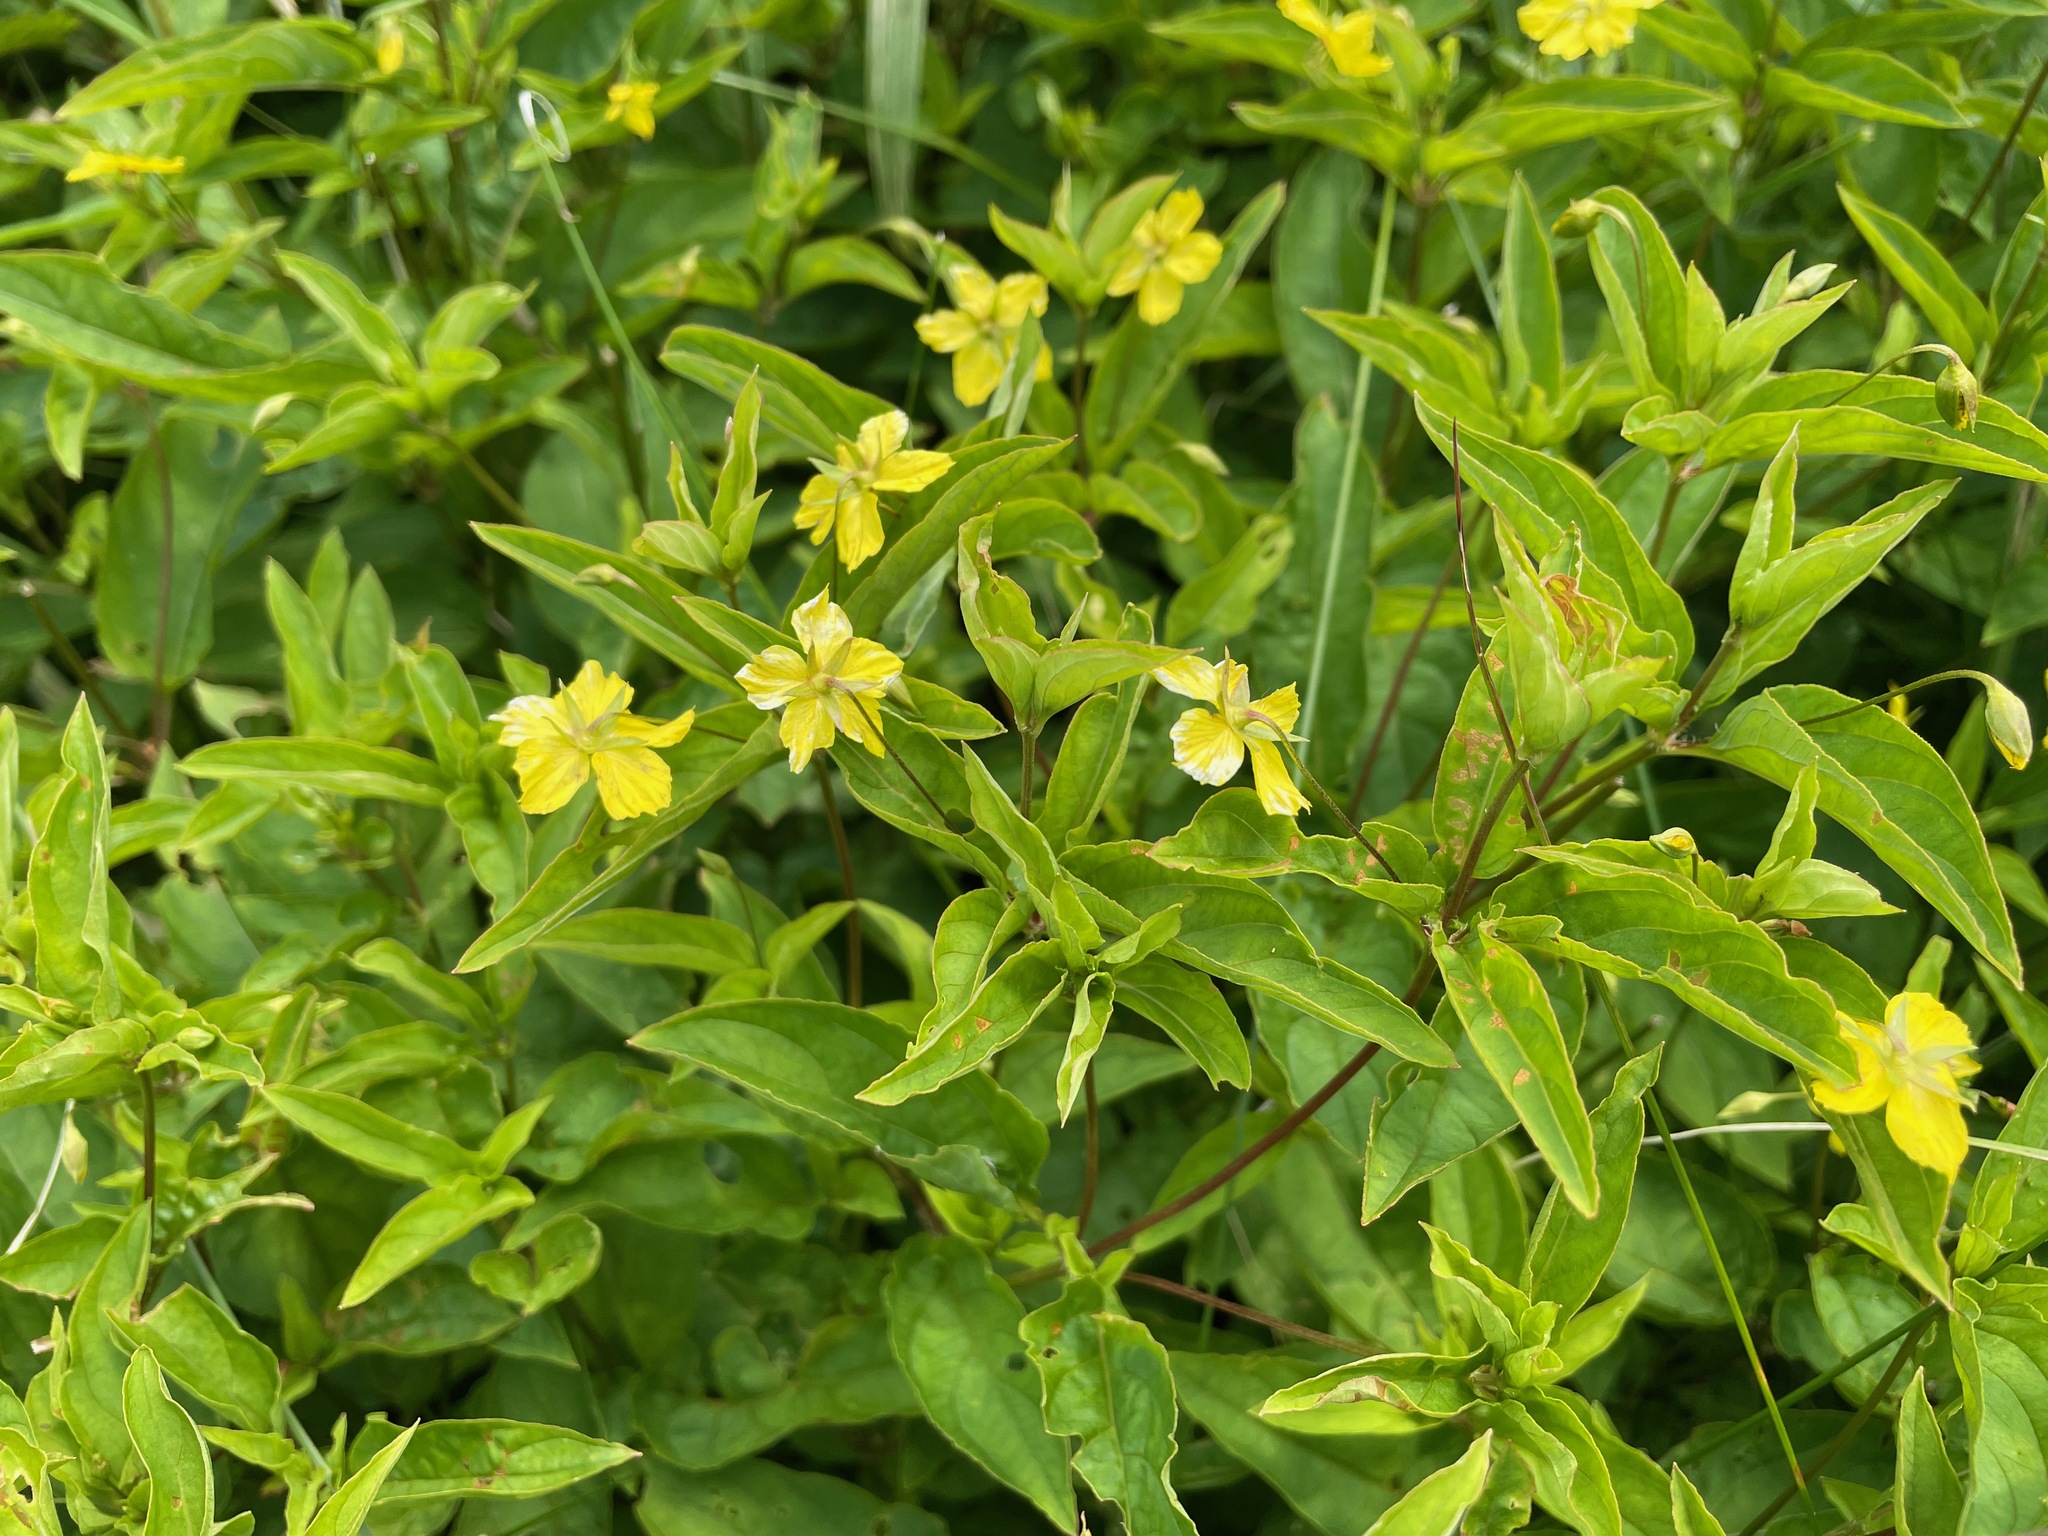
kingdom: Plantae
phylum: Tracheophyta
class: Magnoliopsida
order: Ericales
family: Primulaceae
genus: Lysimachia
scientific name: Lysimachia ciliata
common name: Fringed loosestrife
